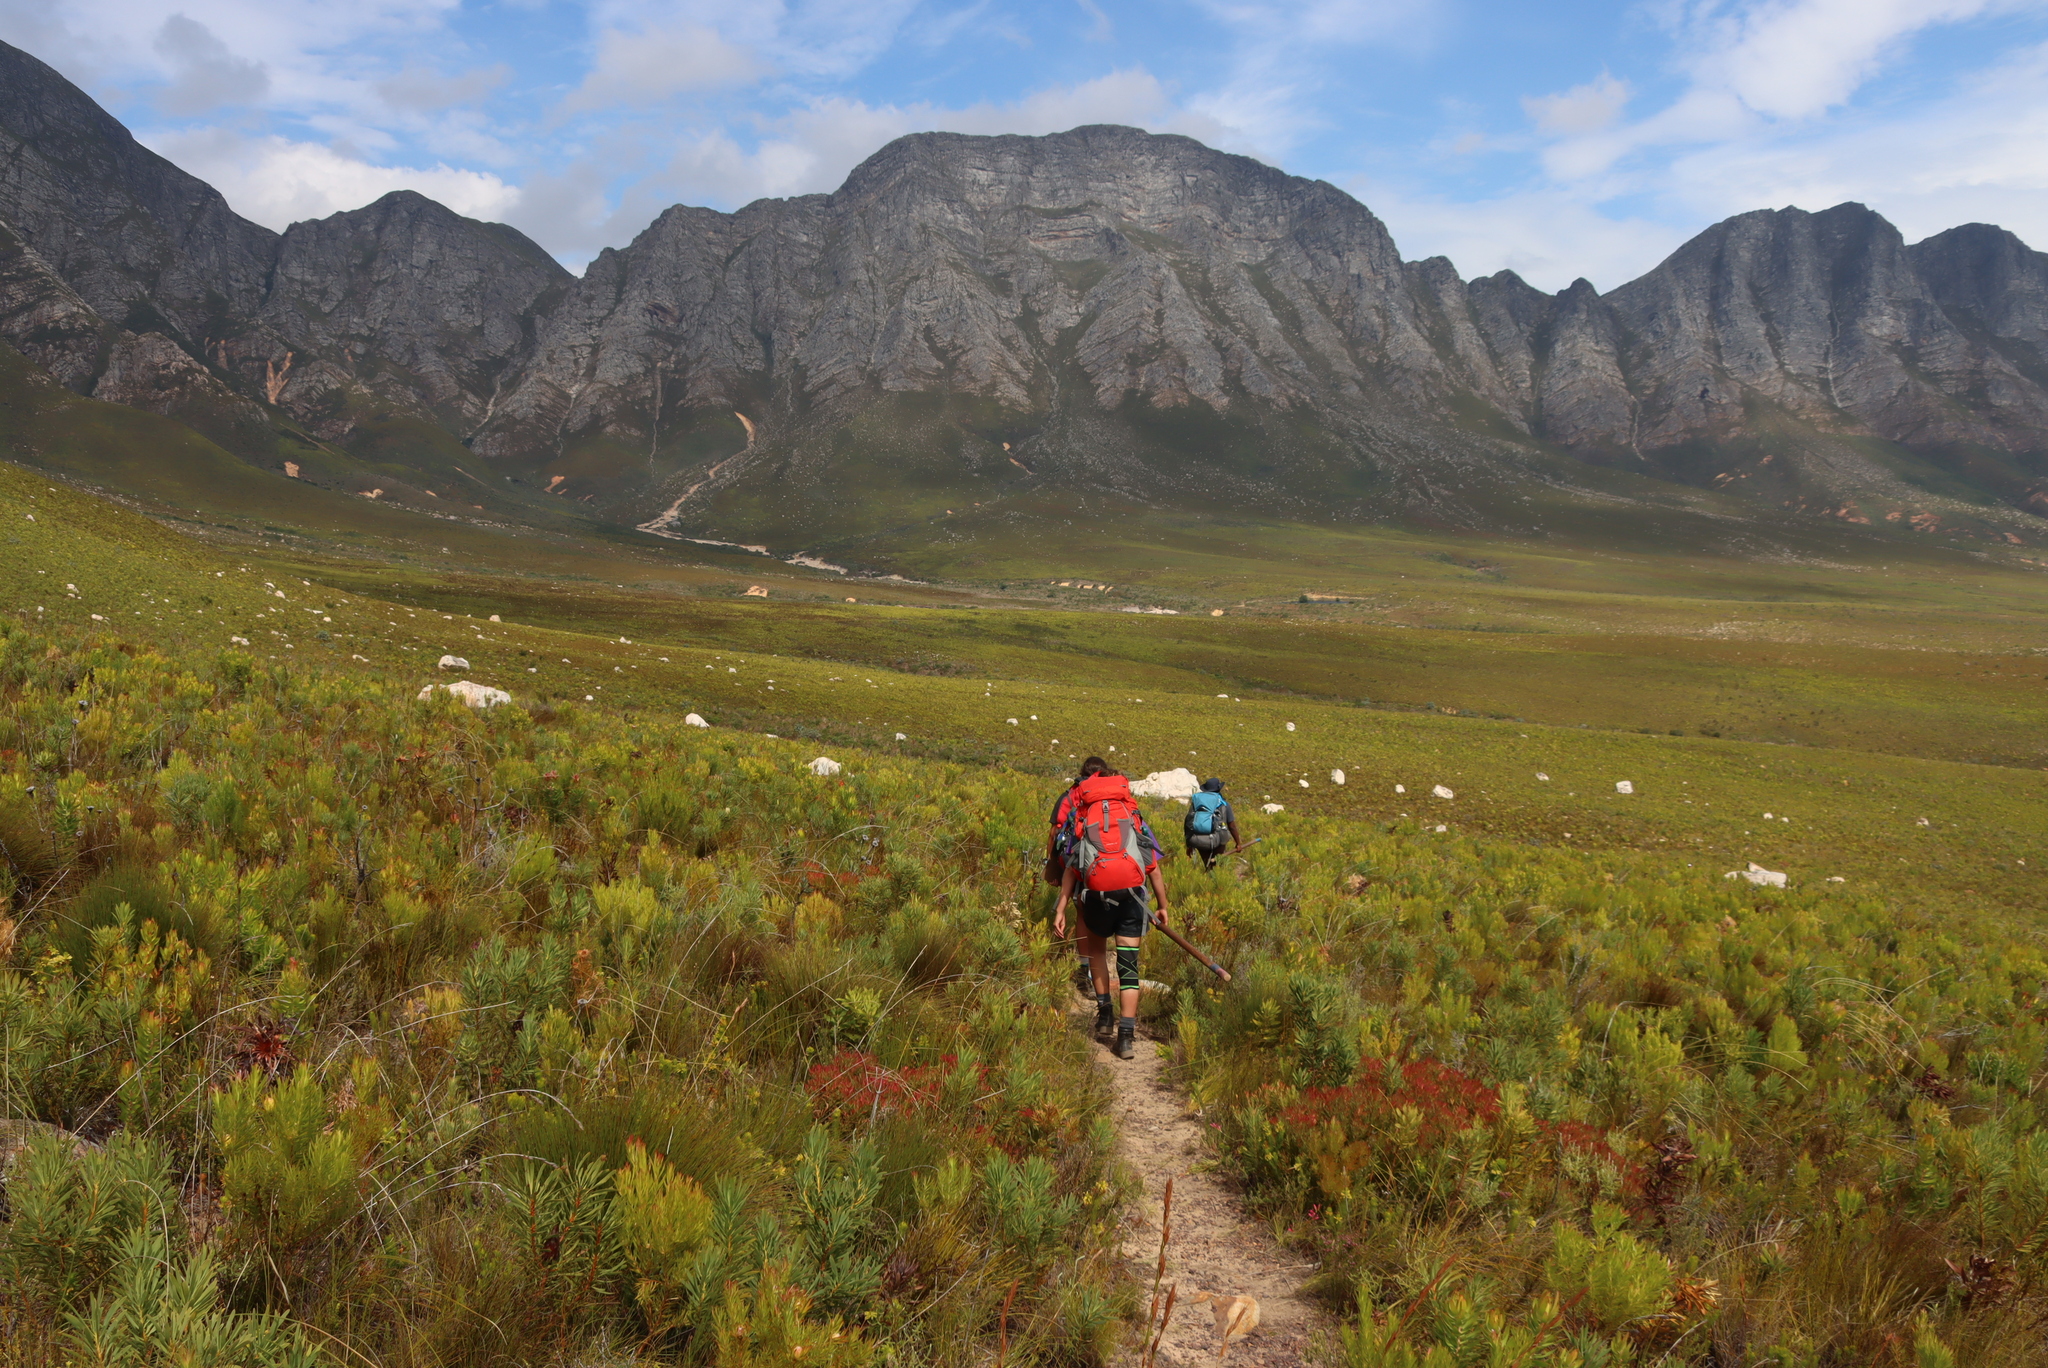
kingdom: Plantae
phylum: Tracheophyta
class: Magnoliopsida
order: Proteales
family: Proteaceae
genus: Protea
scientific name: Protea repens
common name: Sugarbush
